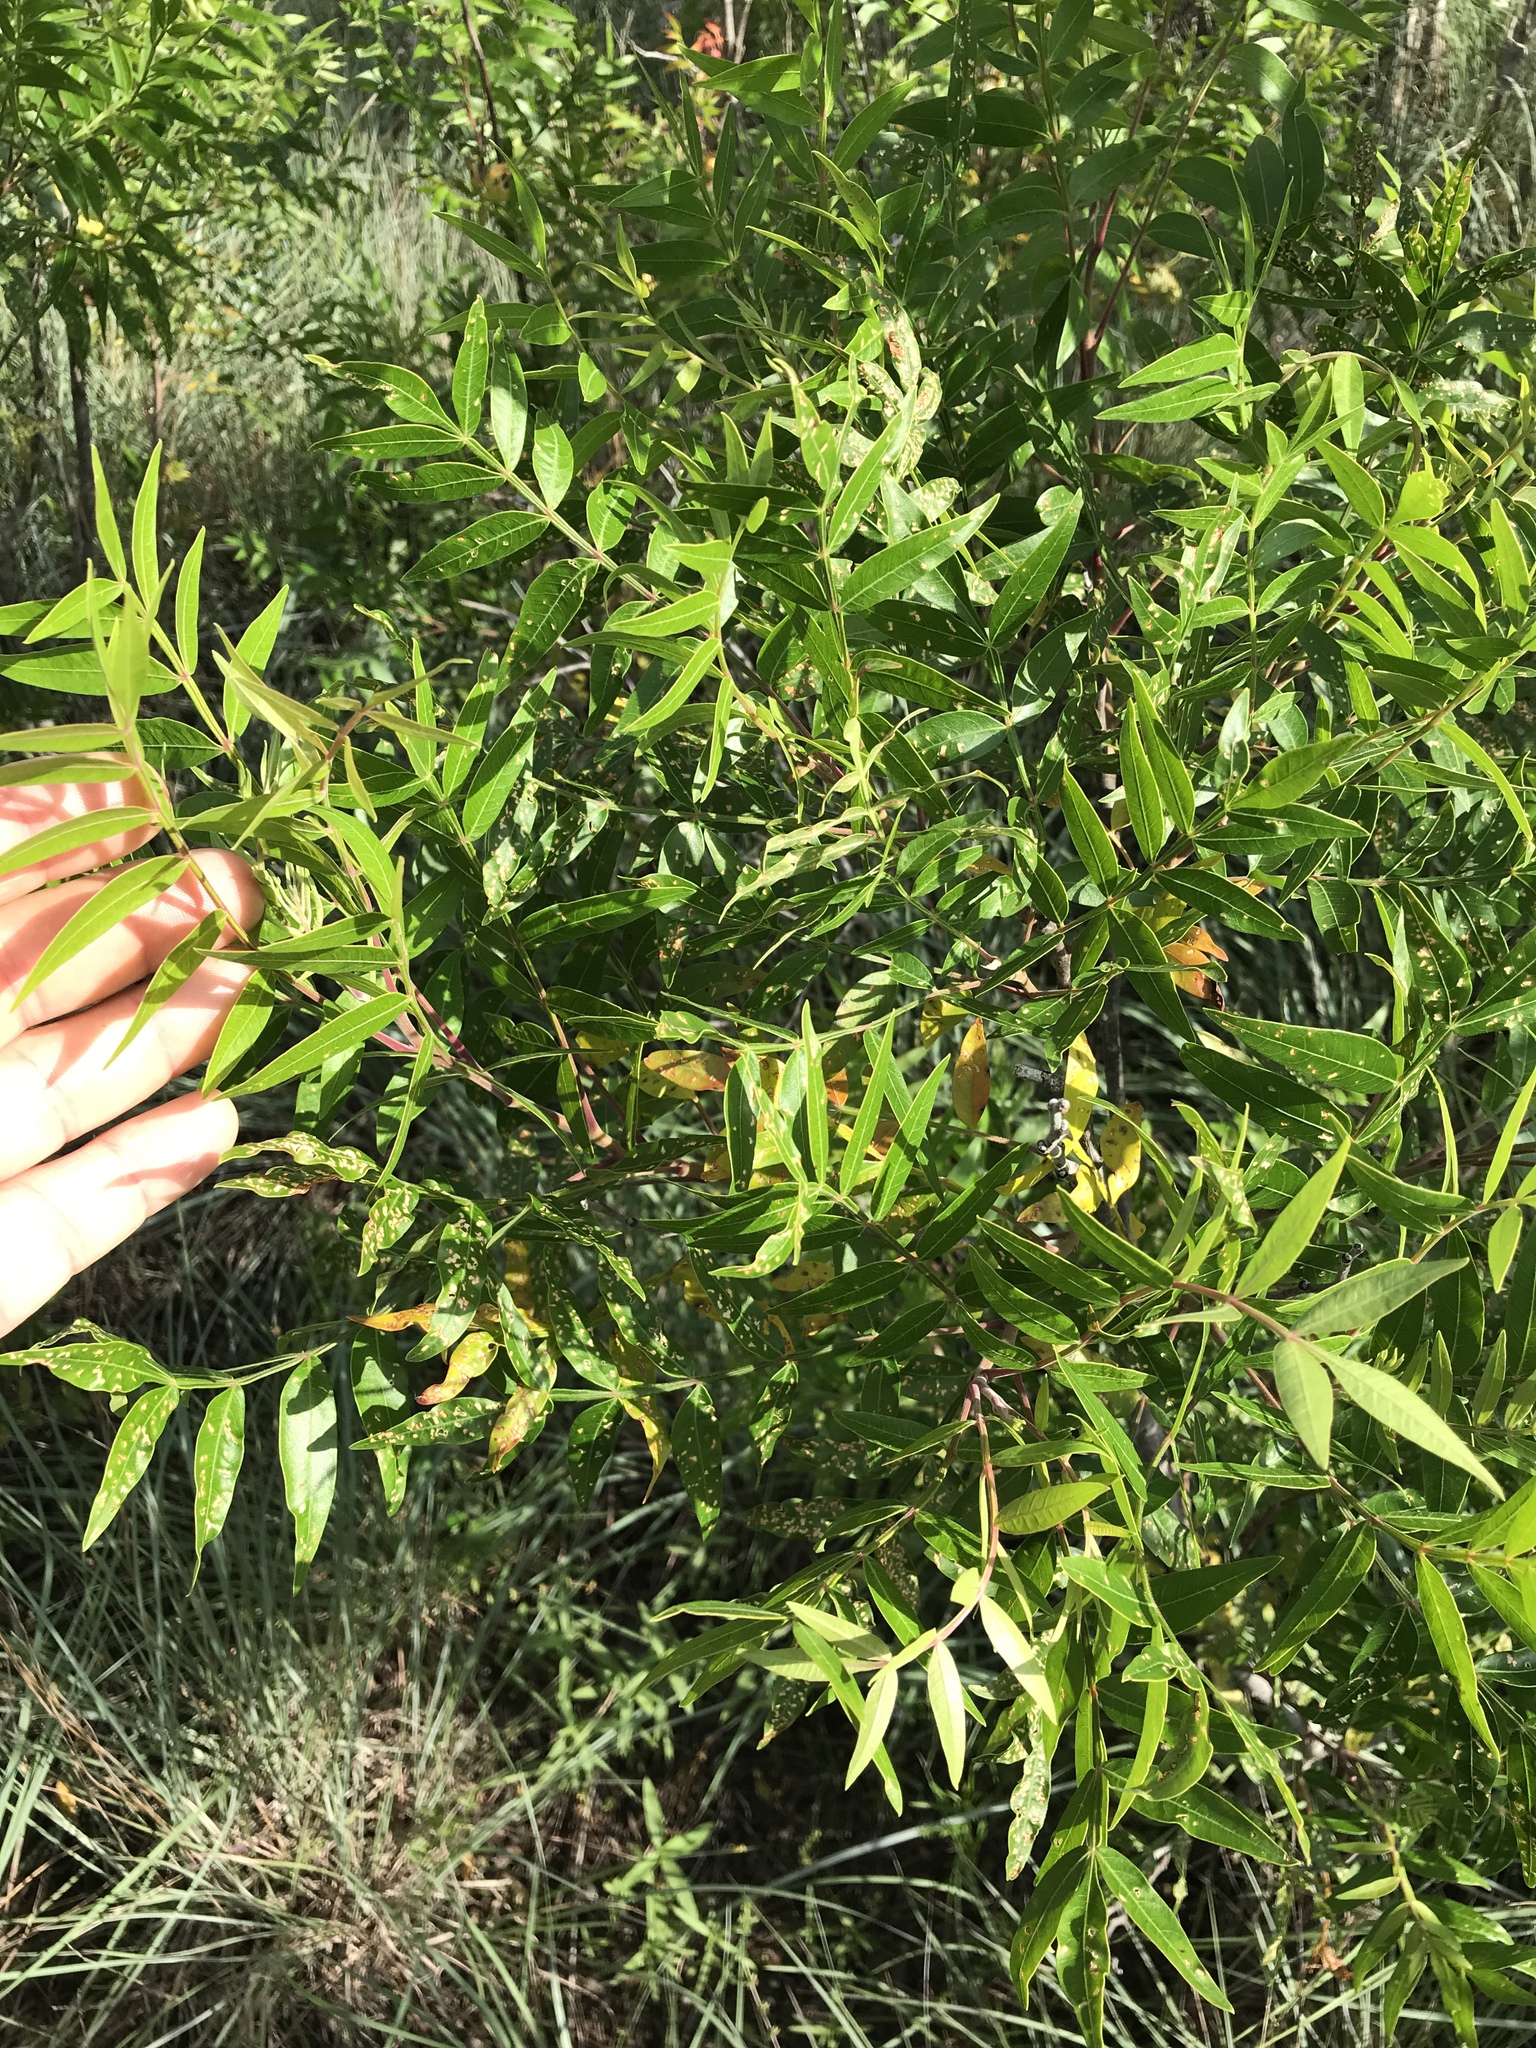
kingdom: Plantae
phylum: Tracheophyta
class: Magnoliopsida
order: Sapindales
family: Anacardiaceae
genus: Rhus
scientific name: Rhus lanceolata
